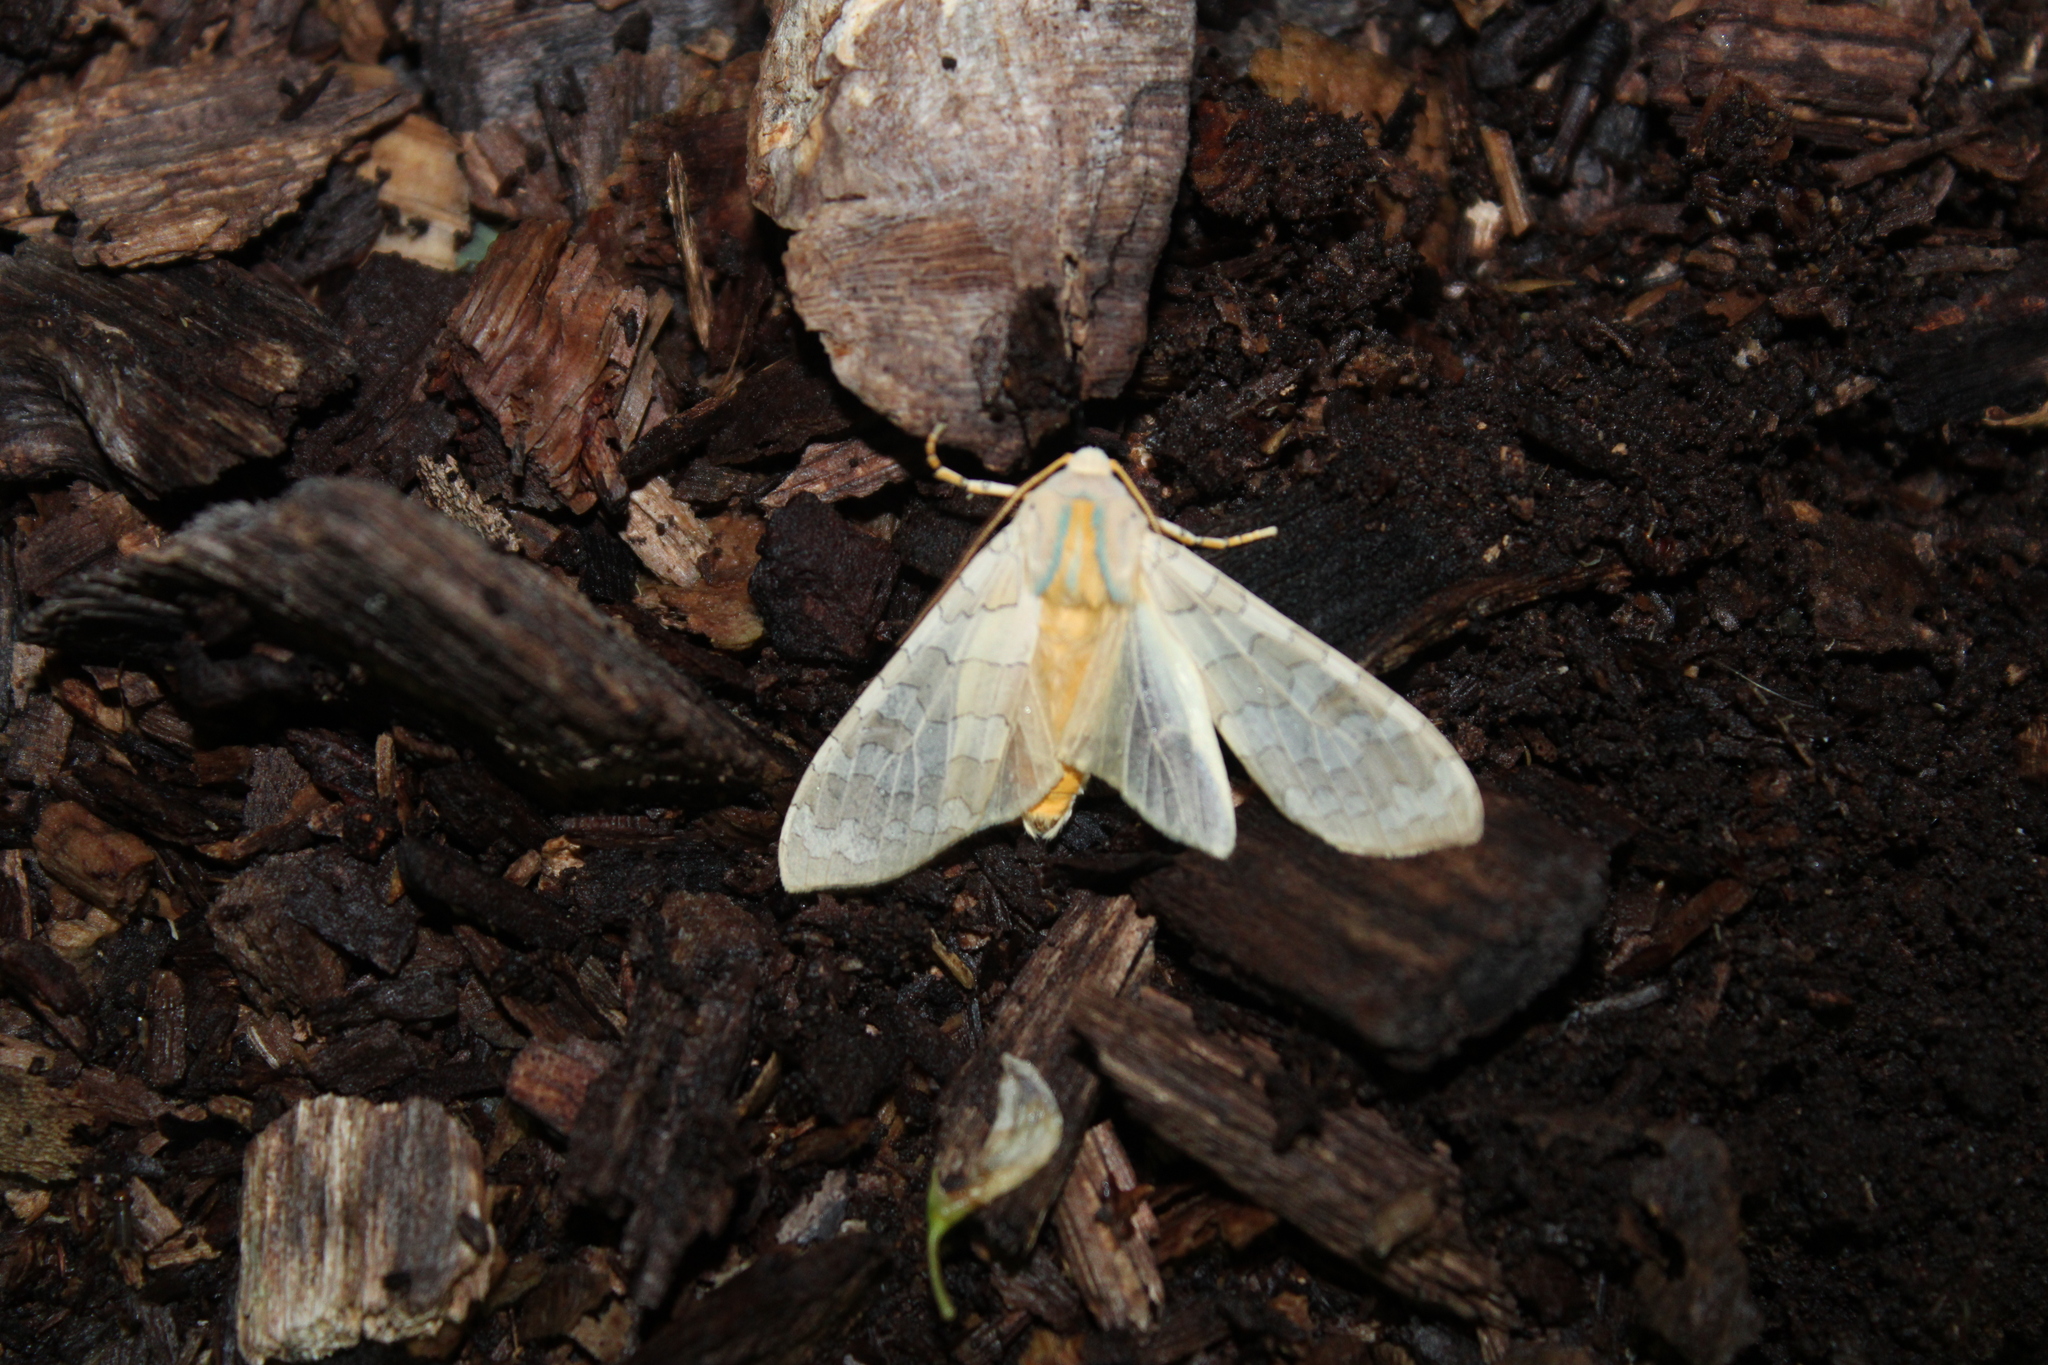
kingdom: Animalia
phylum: Arthropoda
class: Insecta
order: Lepidoptera
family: Erebidae
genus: Halysidota
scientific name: Halysidota
